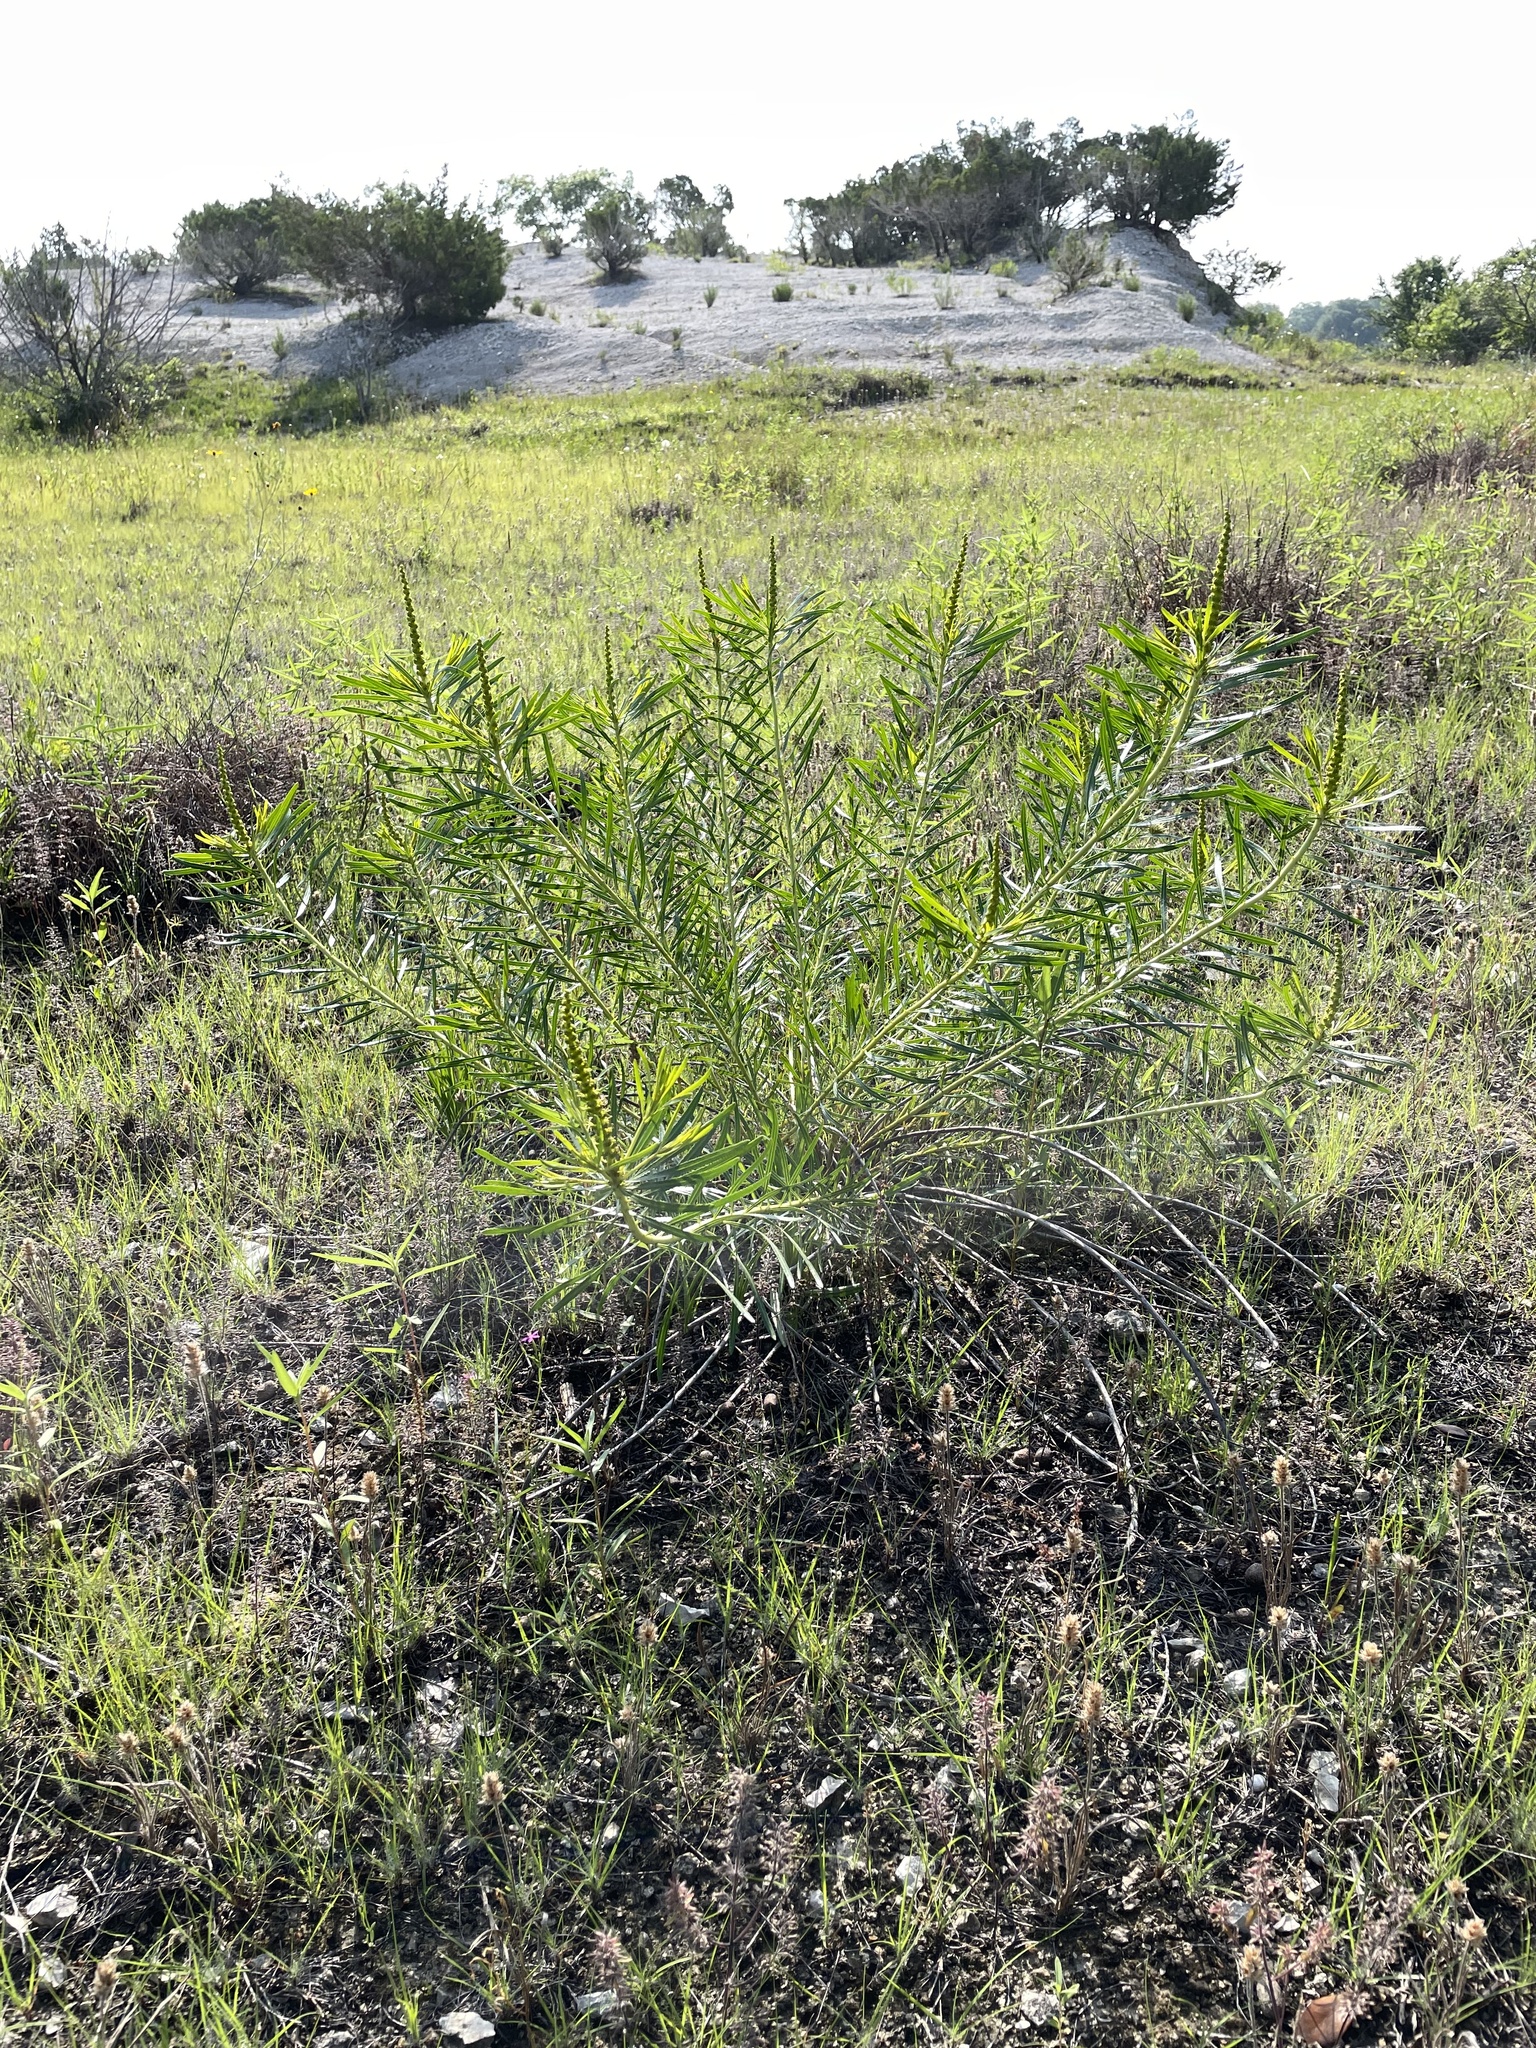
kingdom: Plantae
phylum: Tracheophyta
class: Magnoliopsida
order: Malpighiales
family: Euphorbiaceae
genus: Stillingia
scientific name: Stillingia texana
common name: Texas stillingia
